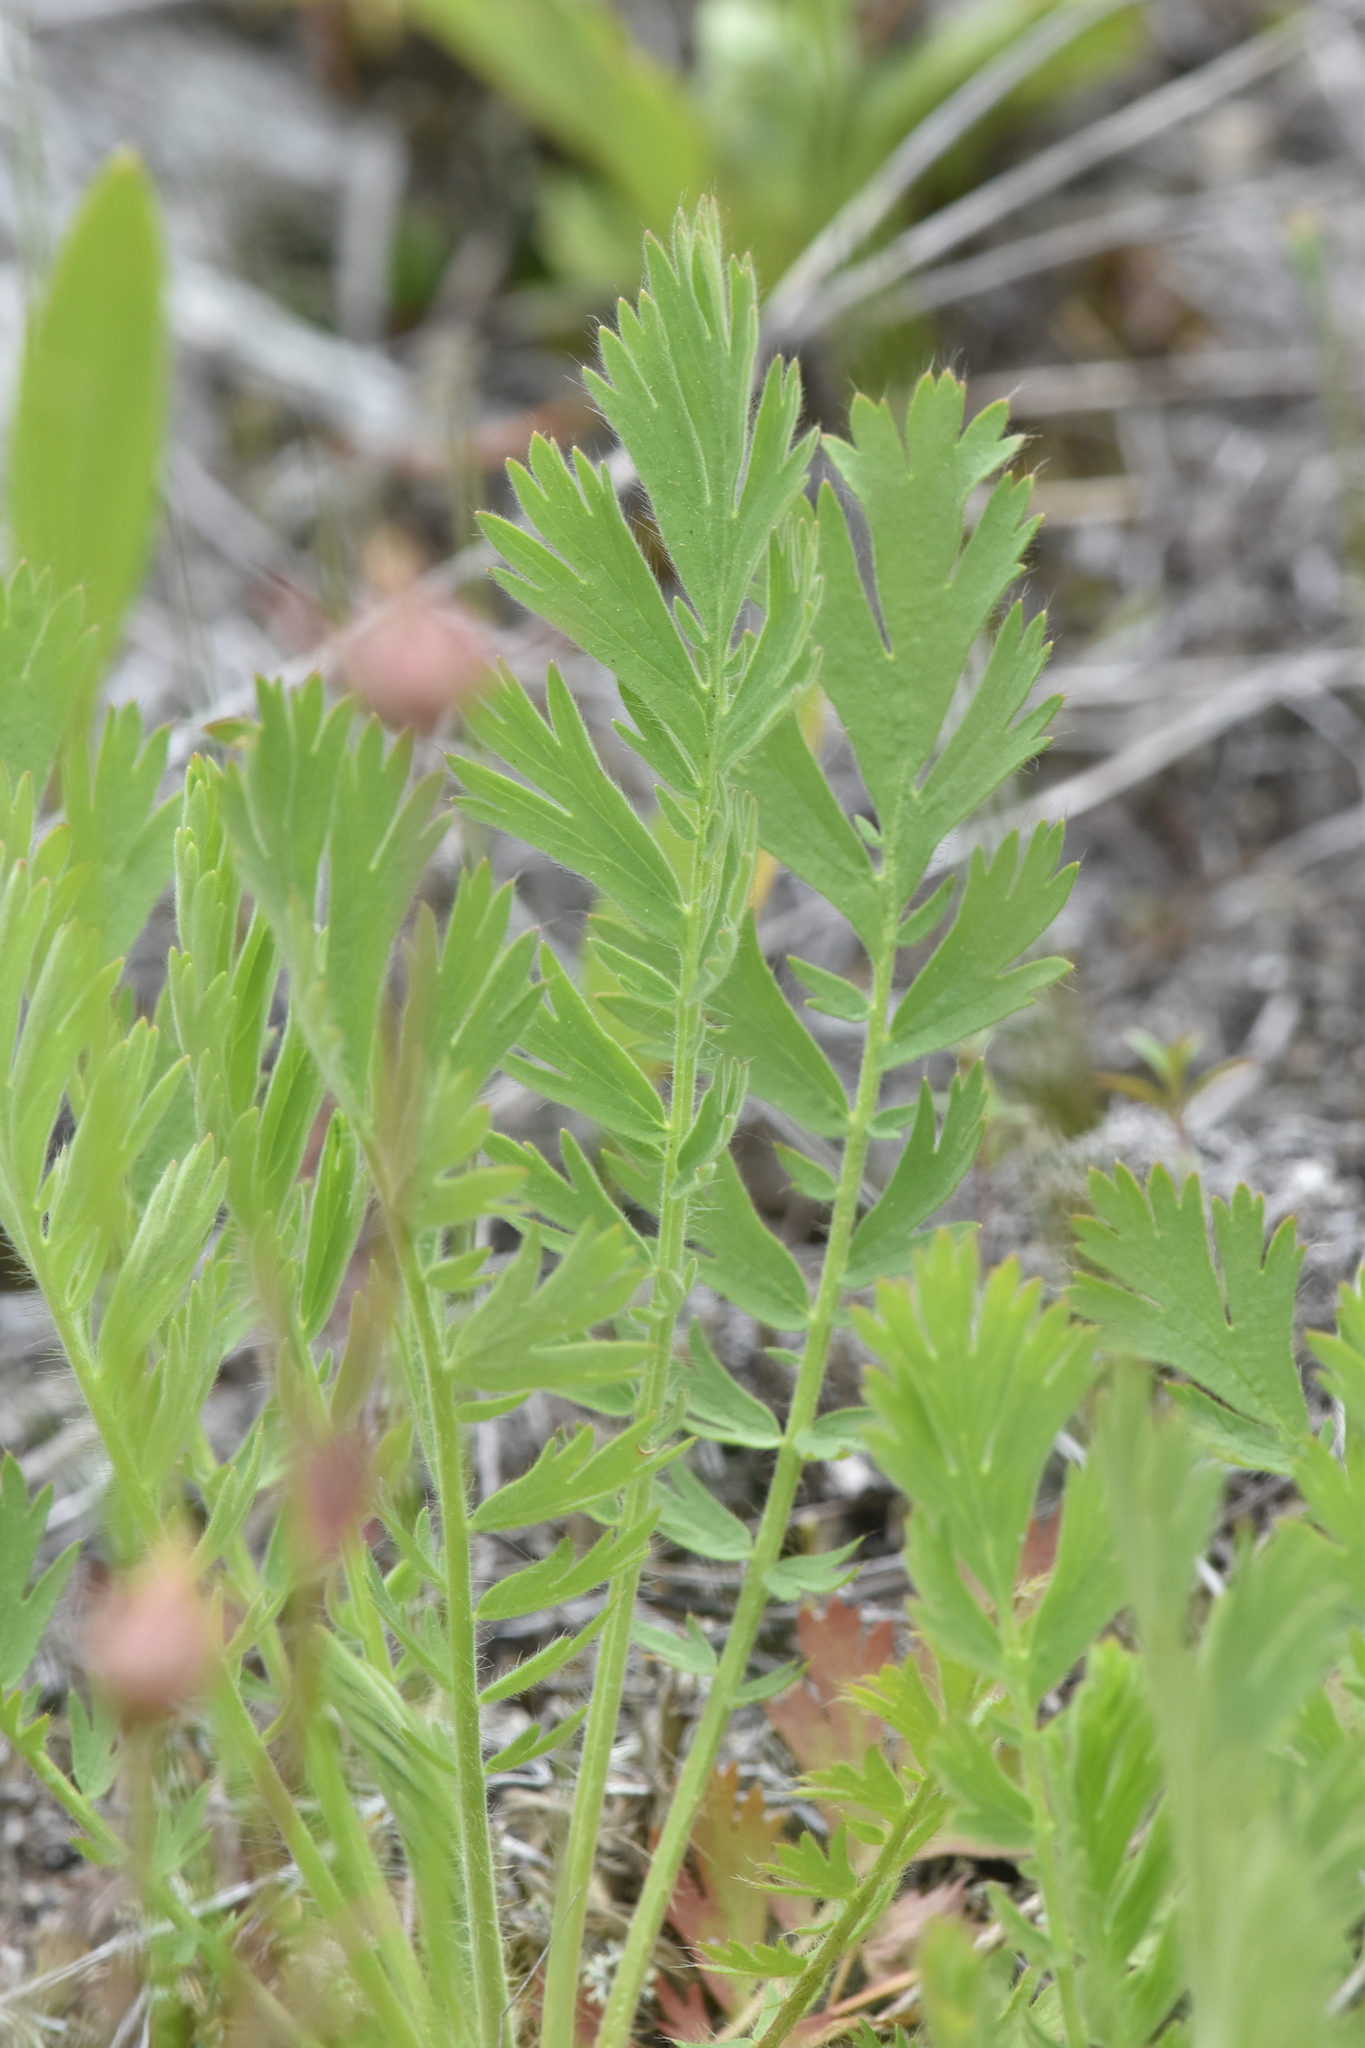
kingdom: Plantae
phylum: Tracheophyta
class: Magnoliopsida
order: Rosales
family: Rosaceae
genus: Geum
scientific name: Geum triflorum
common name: Old man's whiskers
